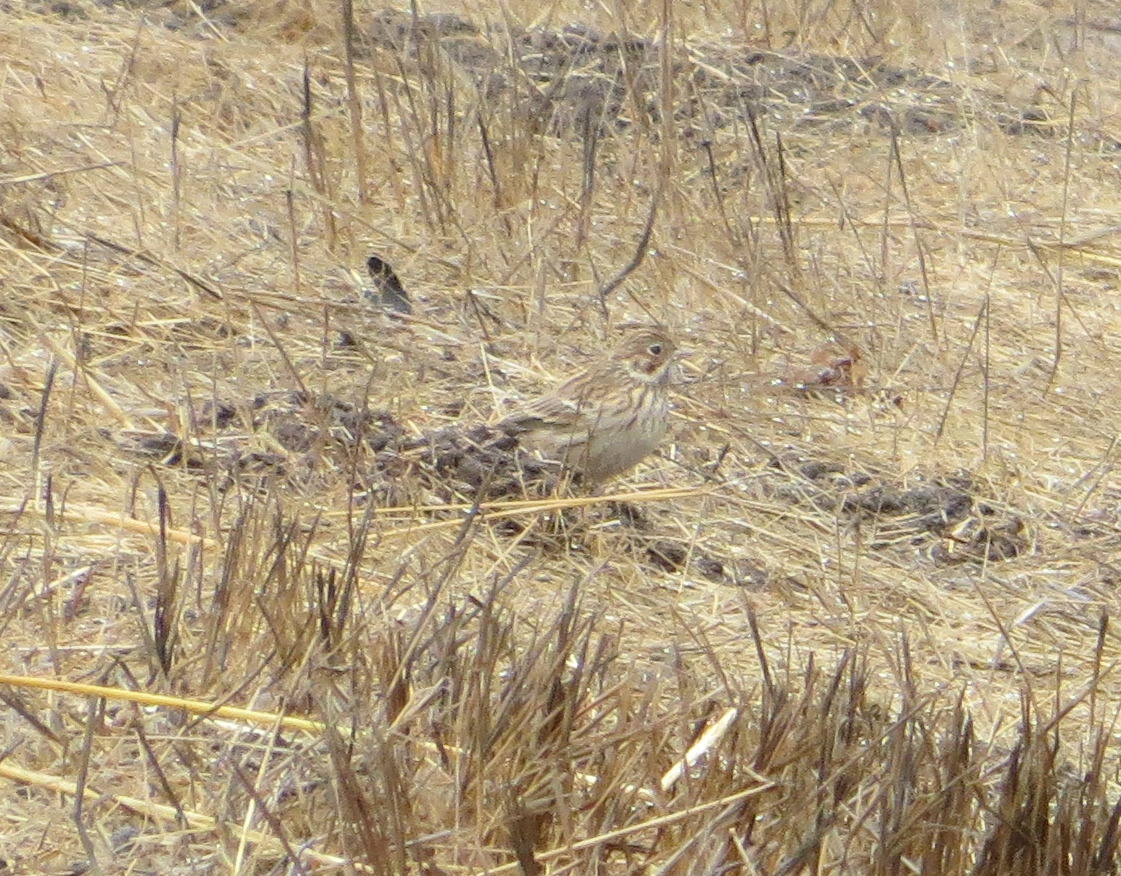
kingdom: Animalia
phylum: Chordata
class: Aves
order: Passeriformes
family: Passerellidae
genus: Pooecetes
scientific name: Pooecetes gramineus
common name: Vesper sparrow
